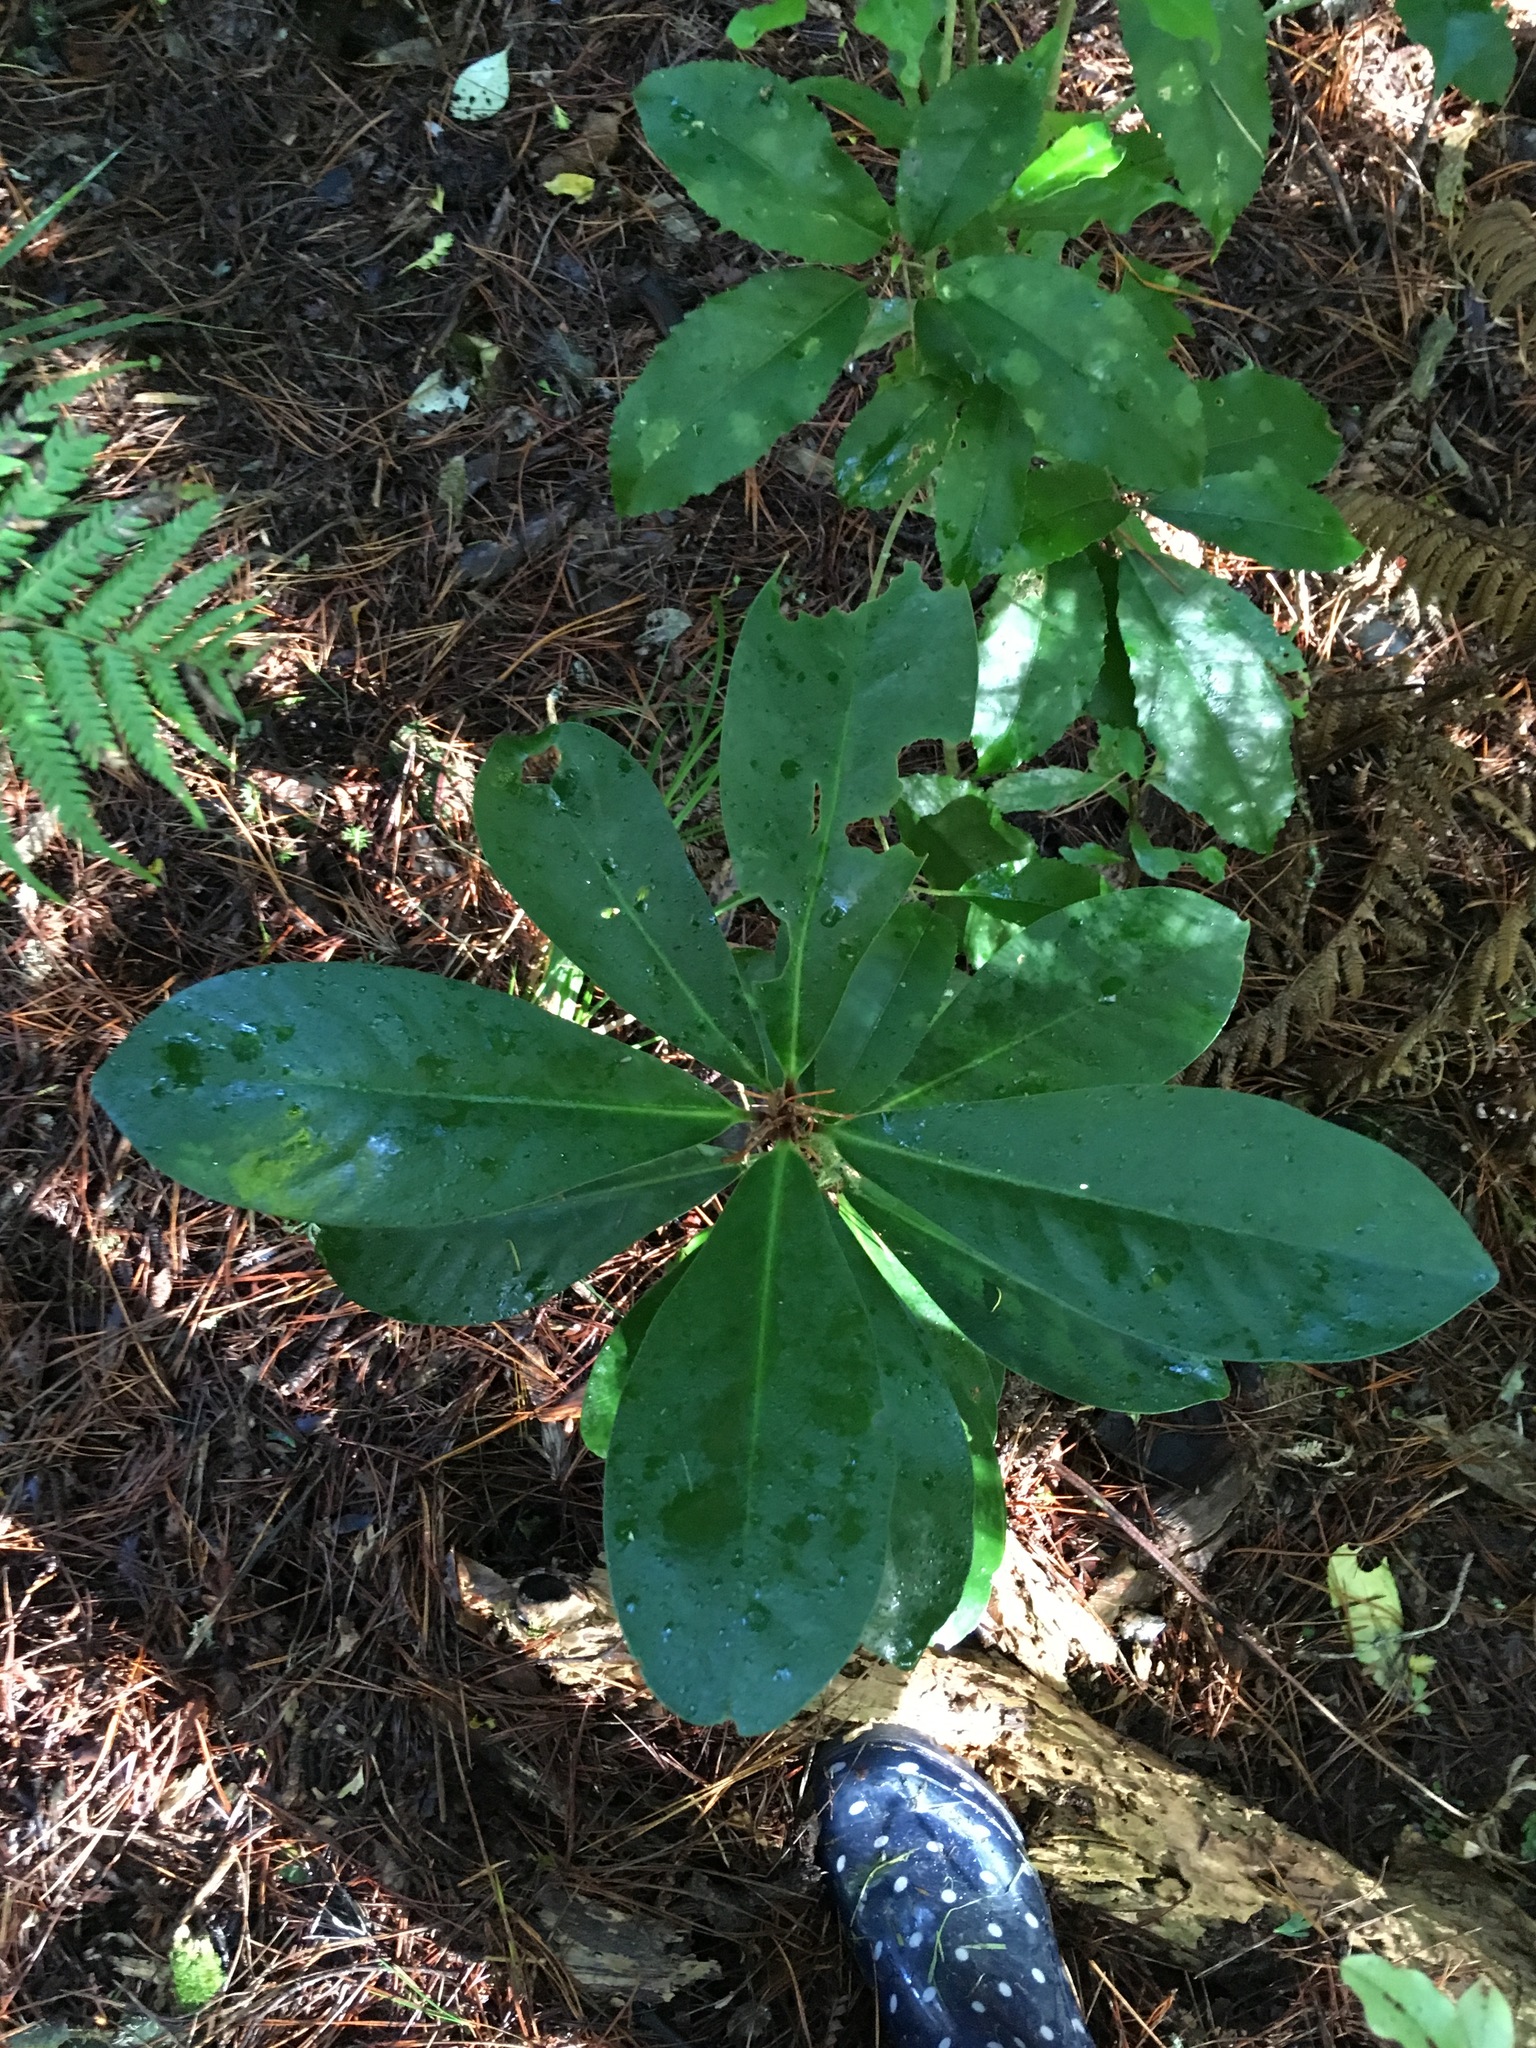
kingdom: Plantae
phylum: Tracheophyta
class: Magnoliopsida
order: Cucurbitales
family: Corynocarpaceae
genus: Corynocarpus
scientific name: Corynocarpus laevigatus
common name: New zealand laurel
